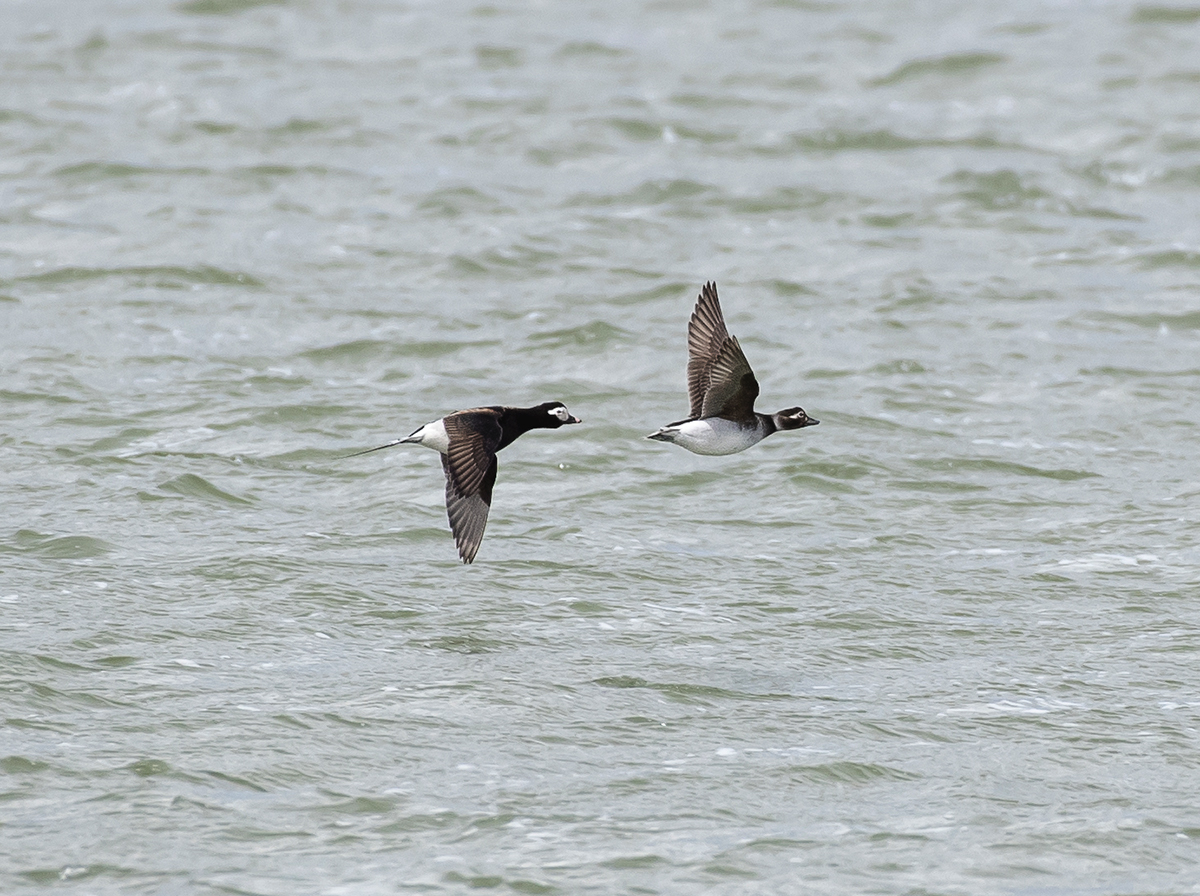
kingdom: Animalia
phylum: Chordata
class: Aves
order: Anseriformes
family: Anatidae
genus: Clangula
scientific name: Clangula hyemalis
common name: Long-tailed duck
